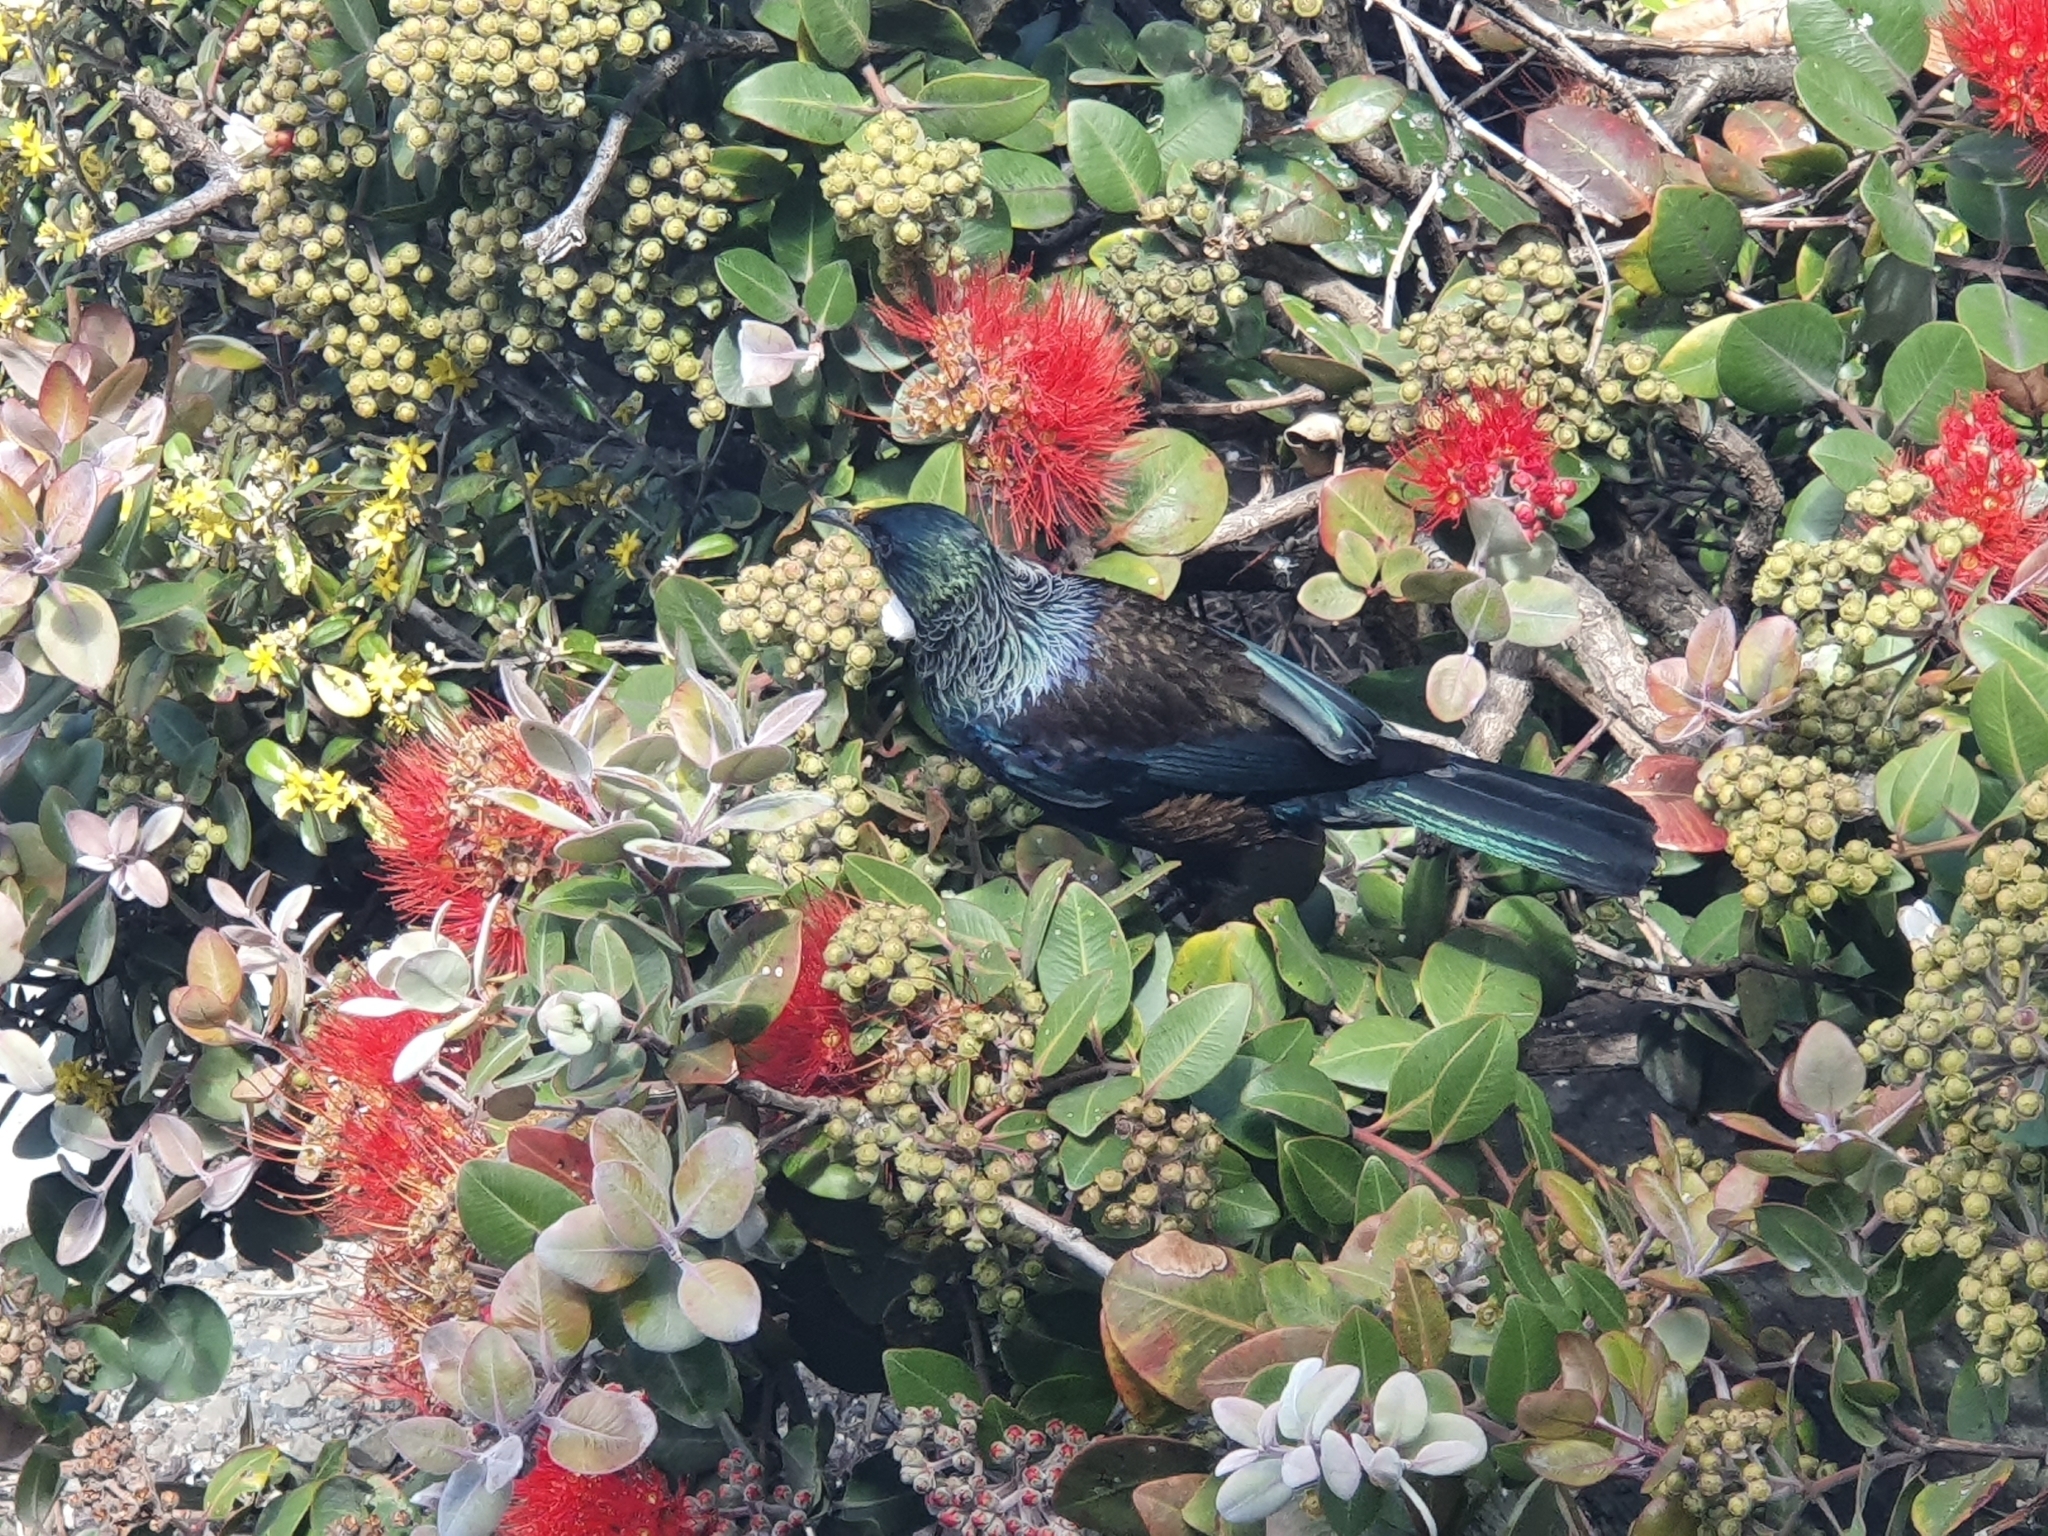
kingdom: Animalia
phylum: Chordata
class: Aves
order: Passeriformes
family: Meliphagidae
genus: Prosthemadera
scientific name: Prosthemadera novaeseelandiae
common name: Tui
